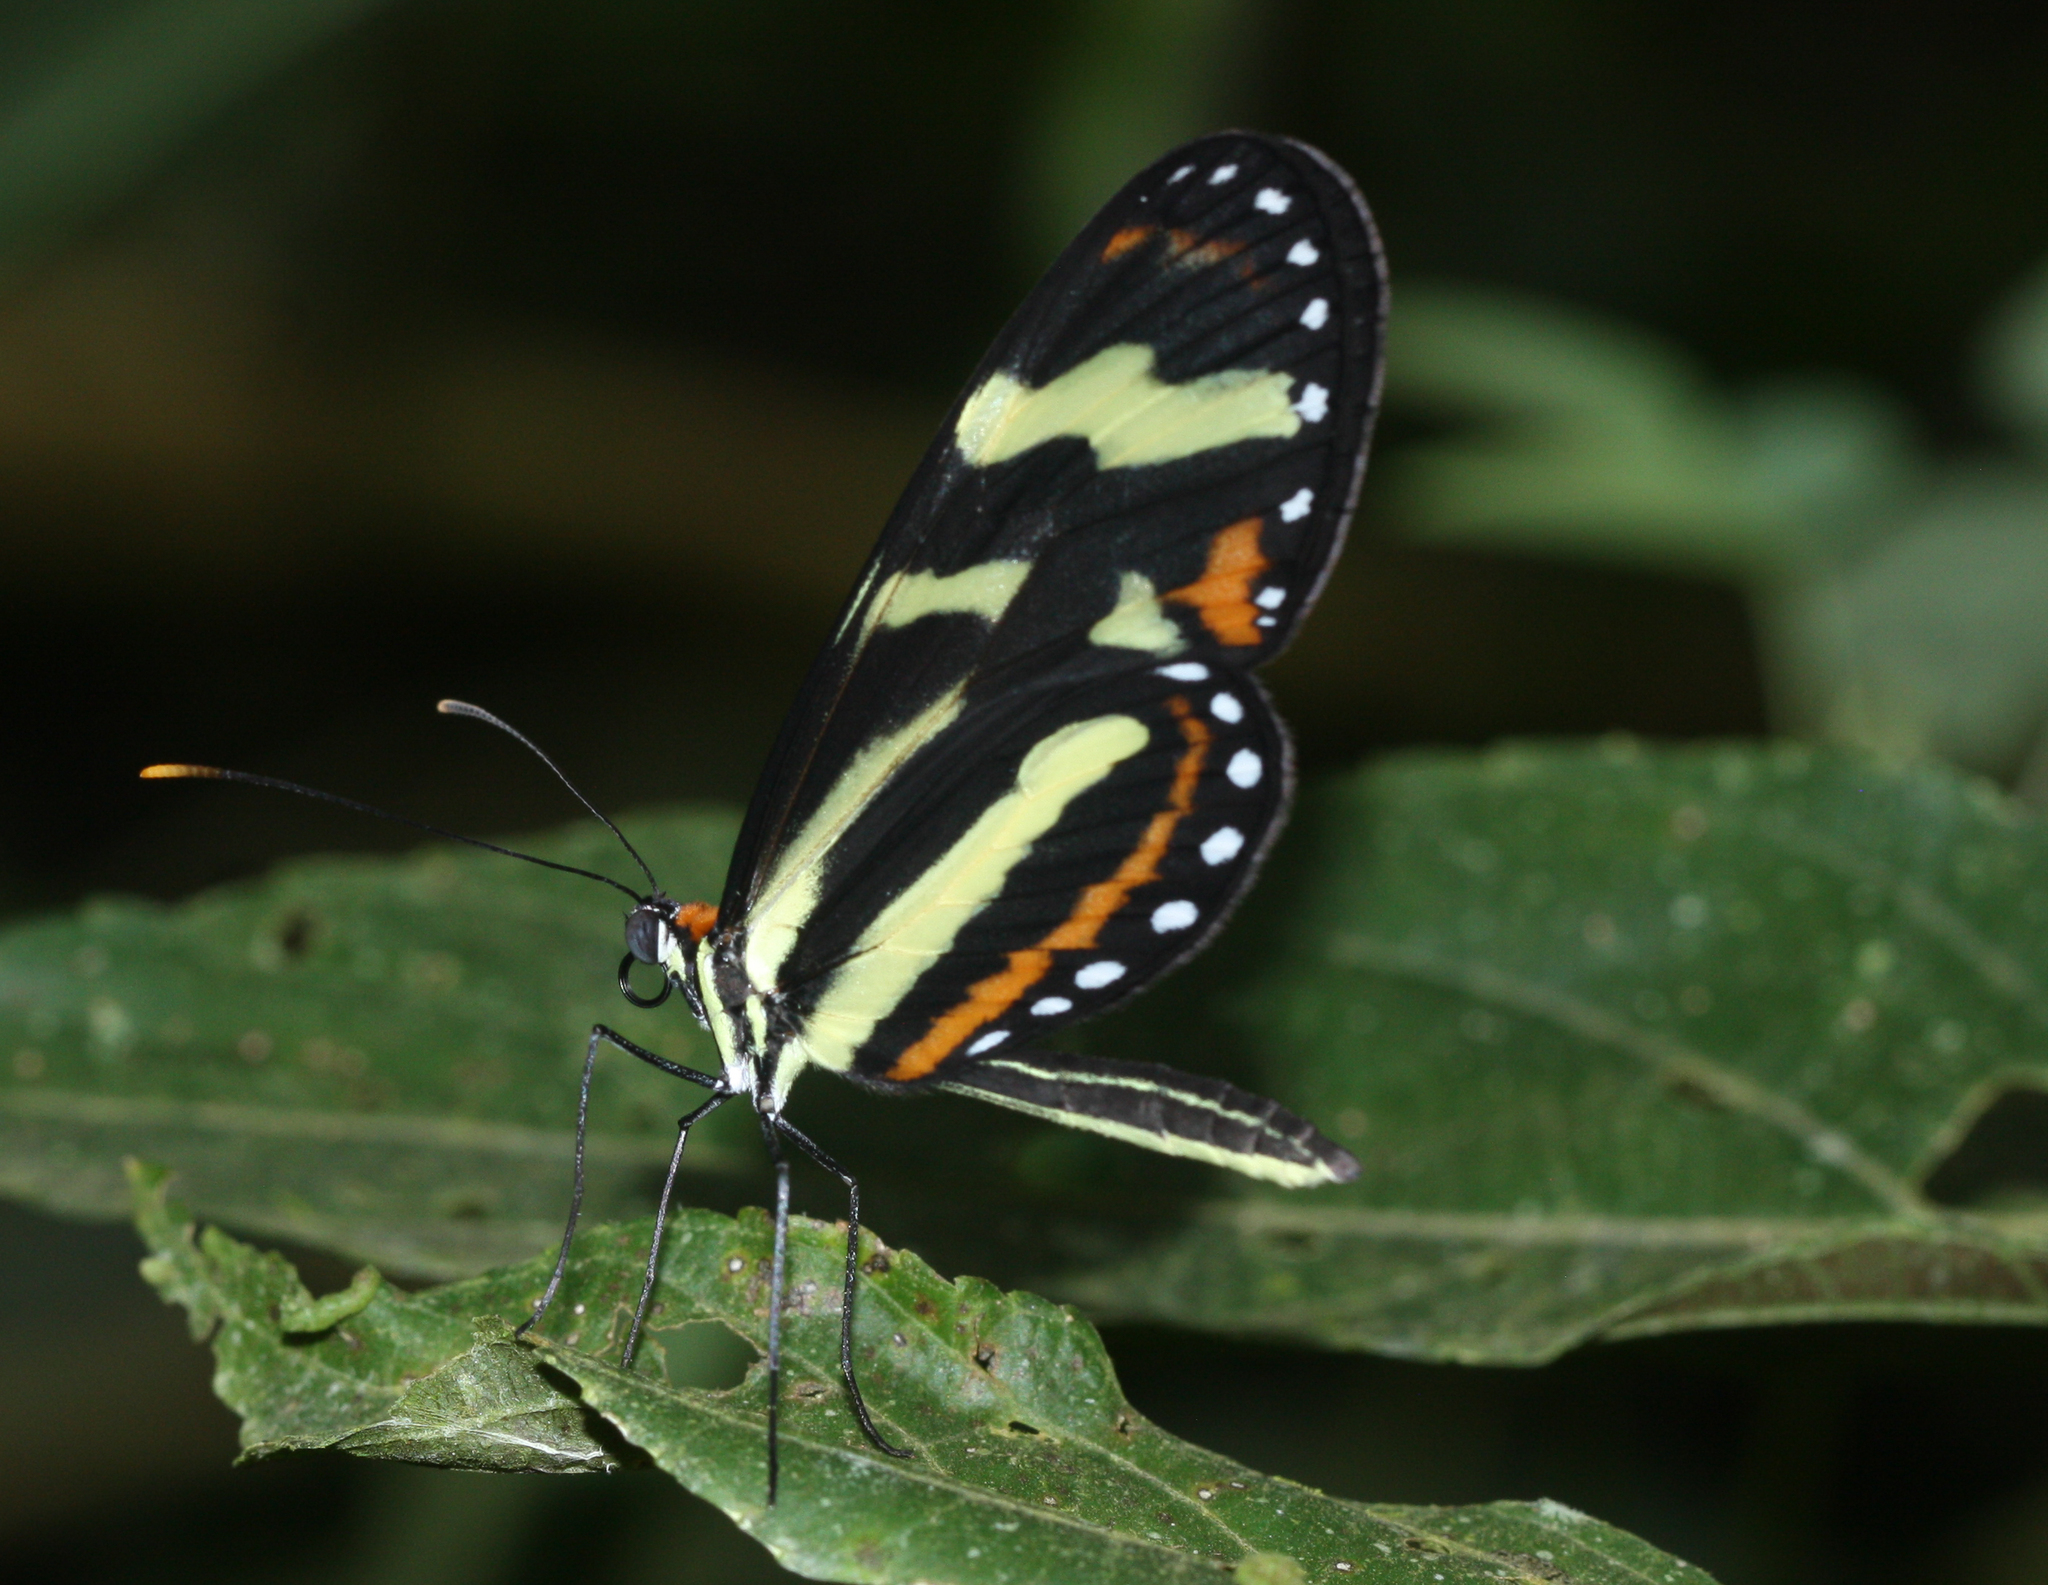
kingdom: Animalia
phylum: Arthropoda
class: Insecta
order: Lepidoptera
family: Nymphalidae
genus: Mechanitis
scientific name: Mechanitis menapis
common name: Menapis tigerwing
